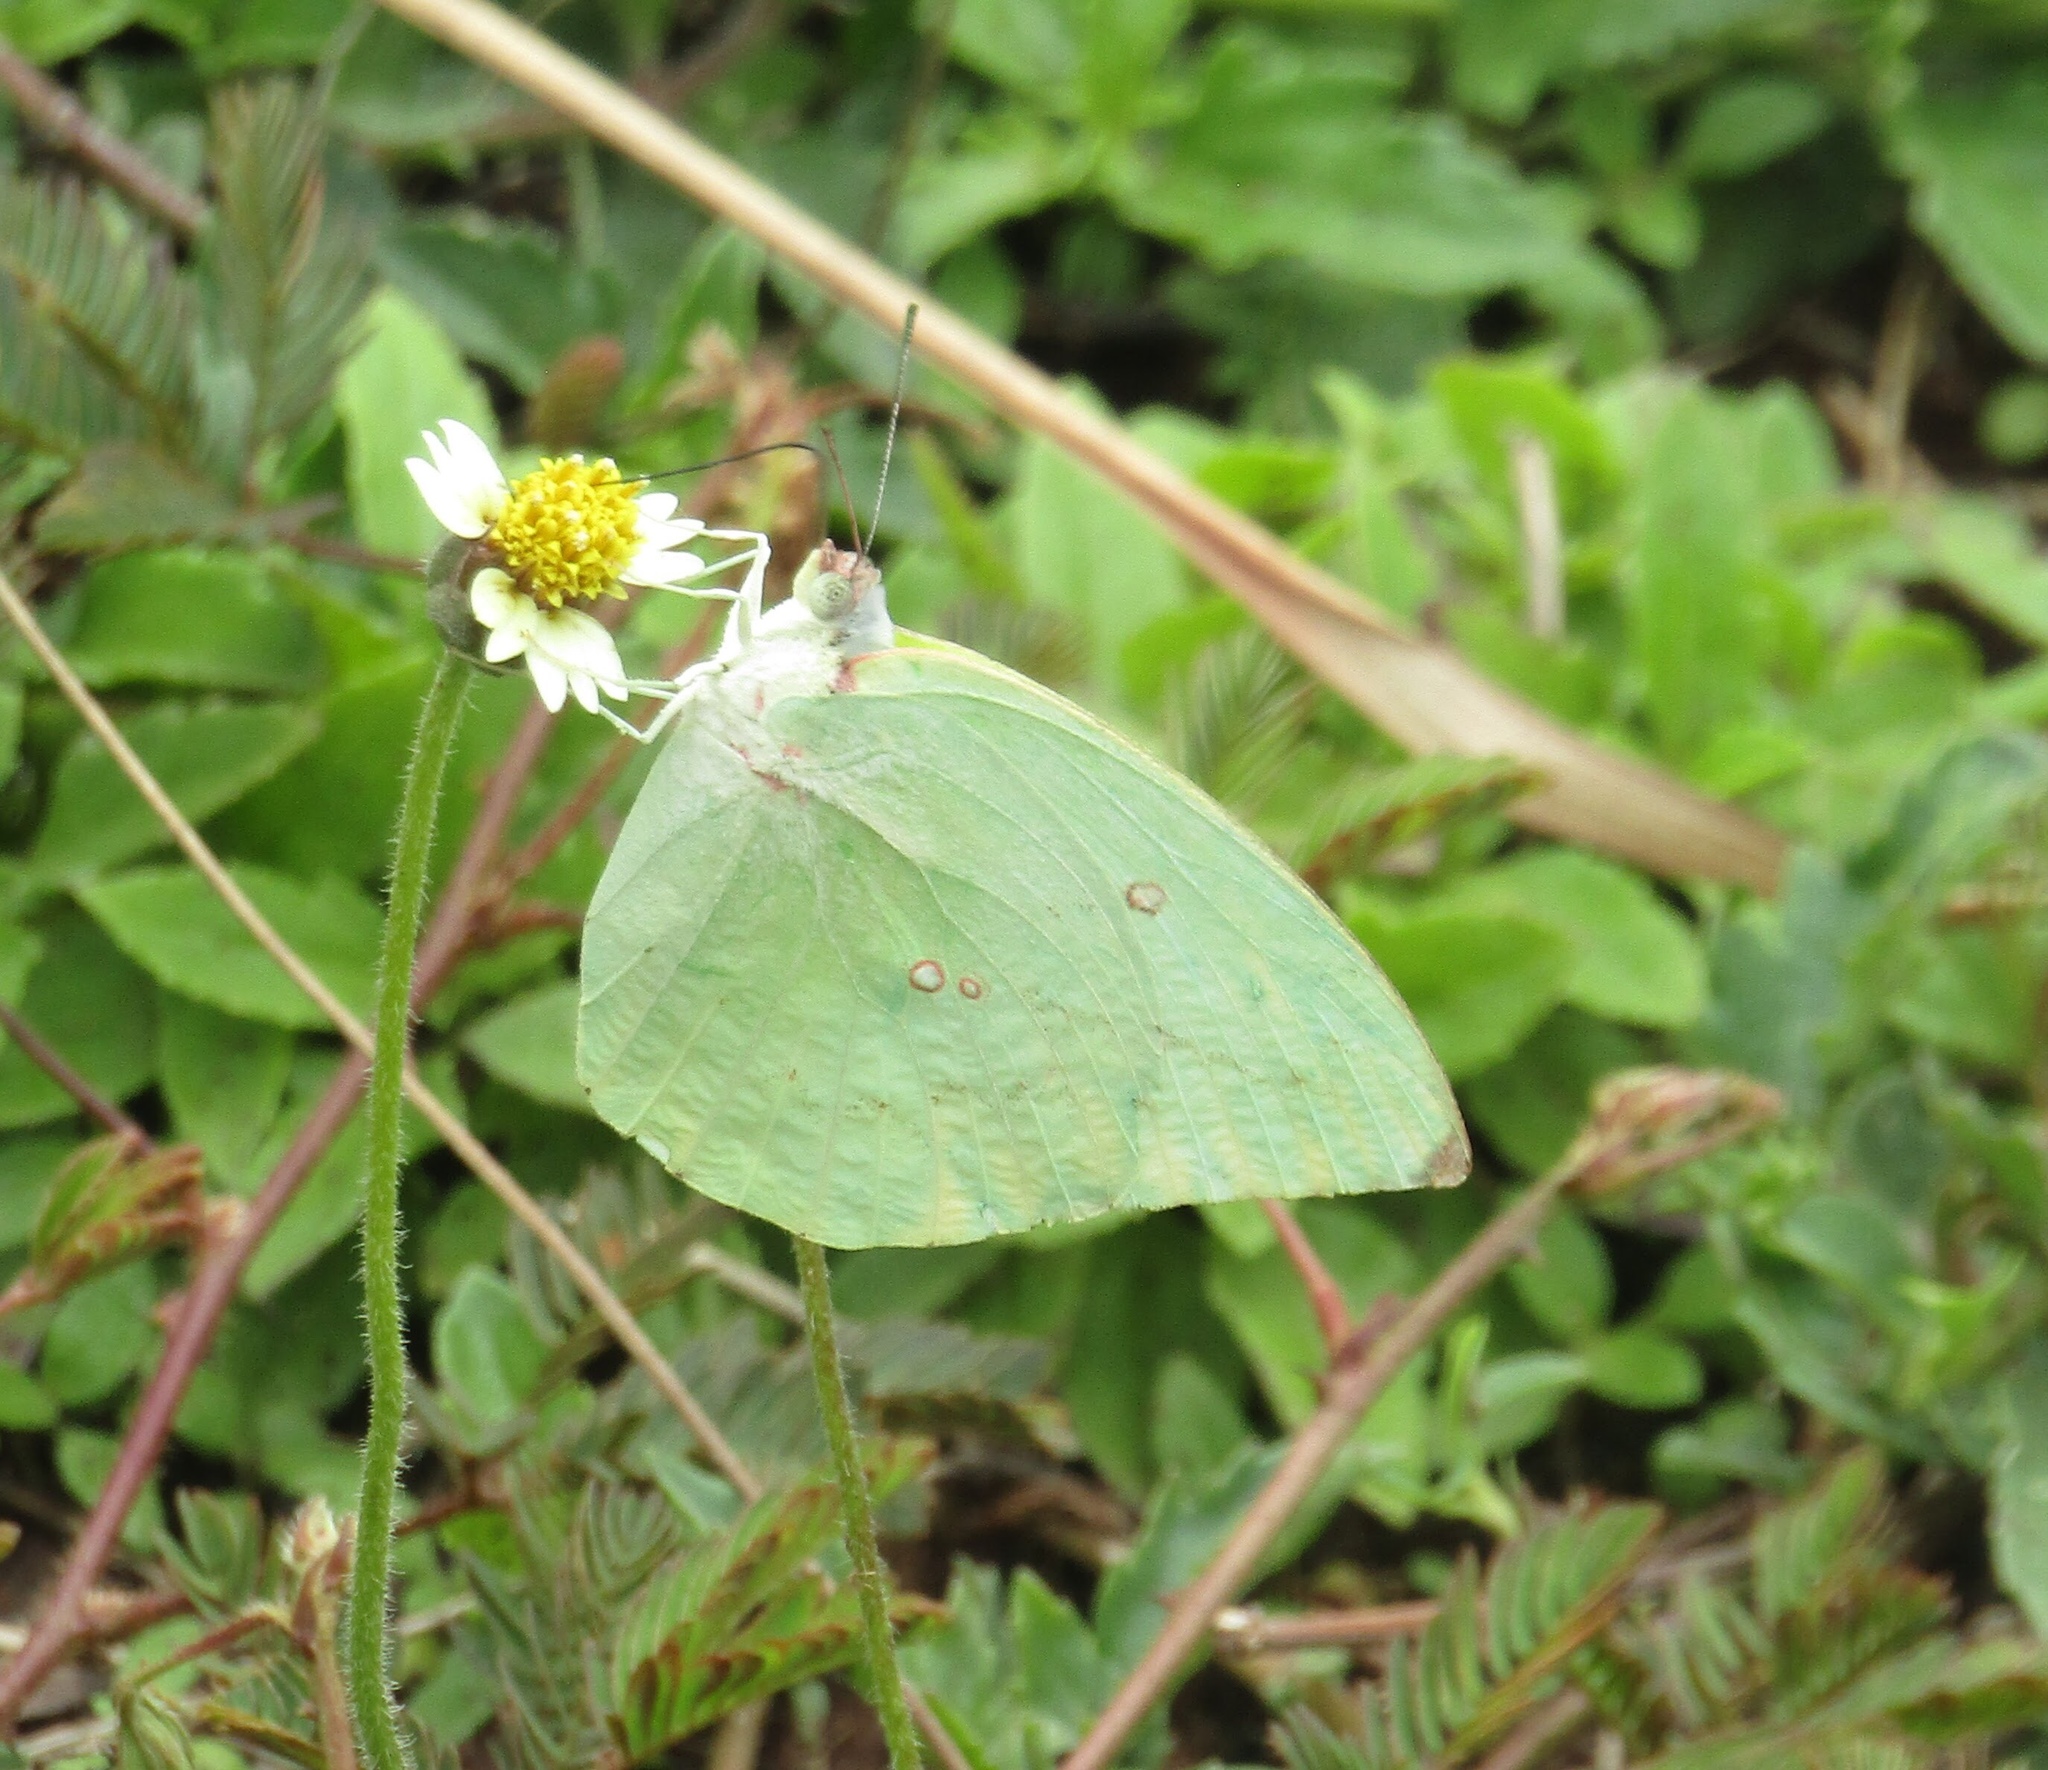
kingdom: Animalia
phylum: Arthropoda
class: Insecta
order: Lepidoptera
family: Pieridae
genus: Catopsilia
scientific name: Catopsilia pomona
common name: Common emigrant
